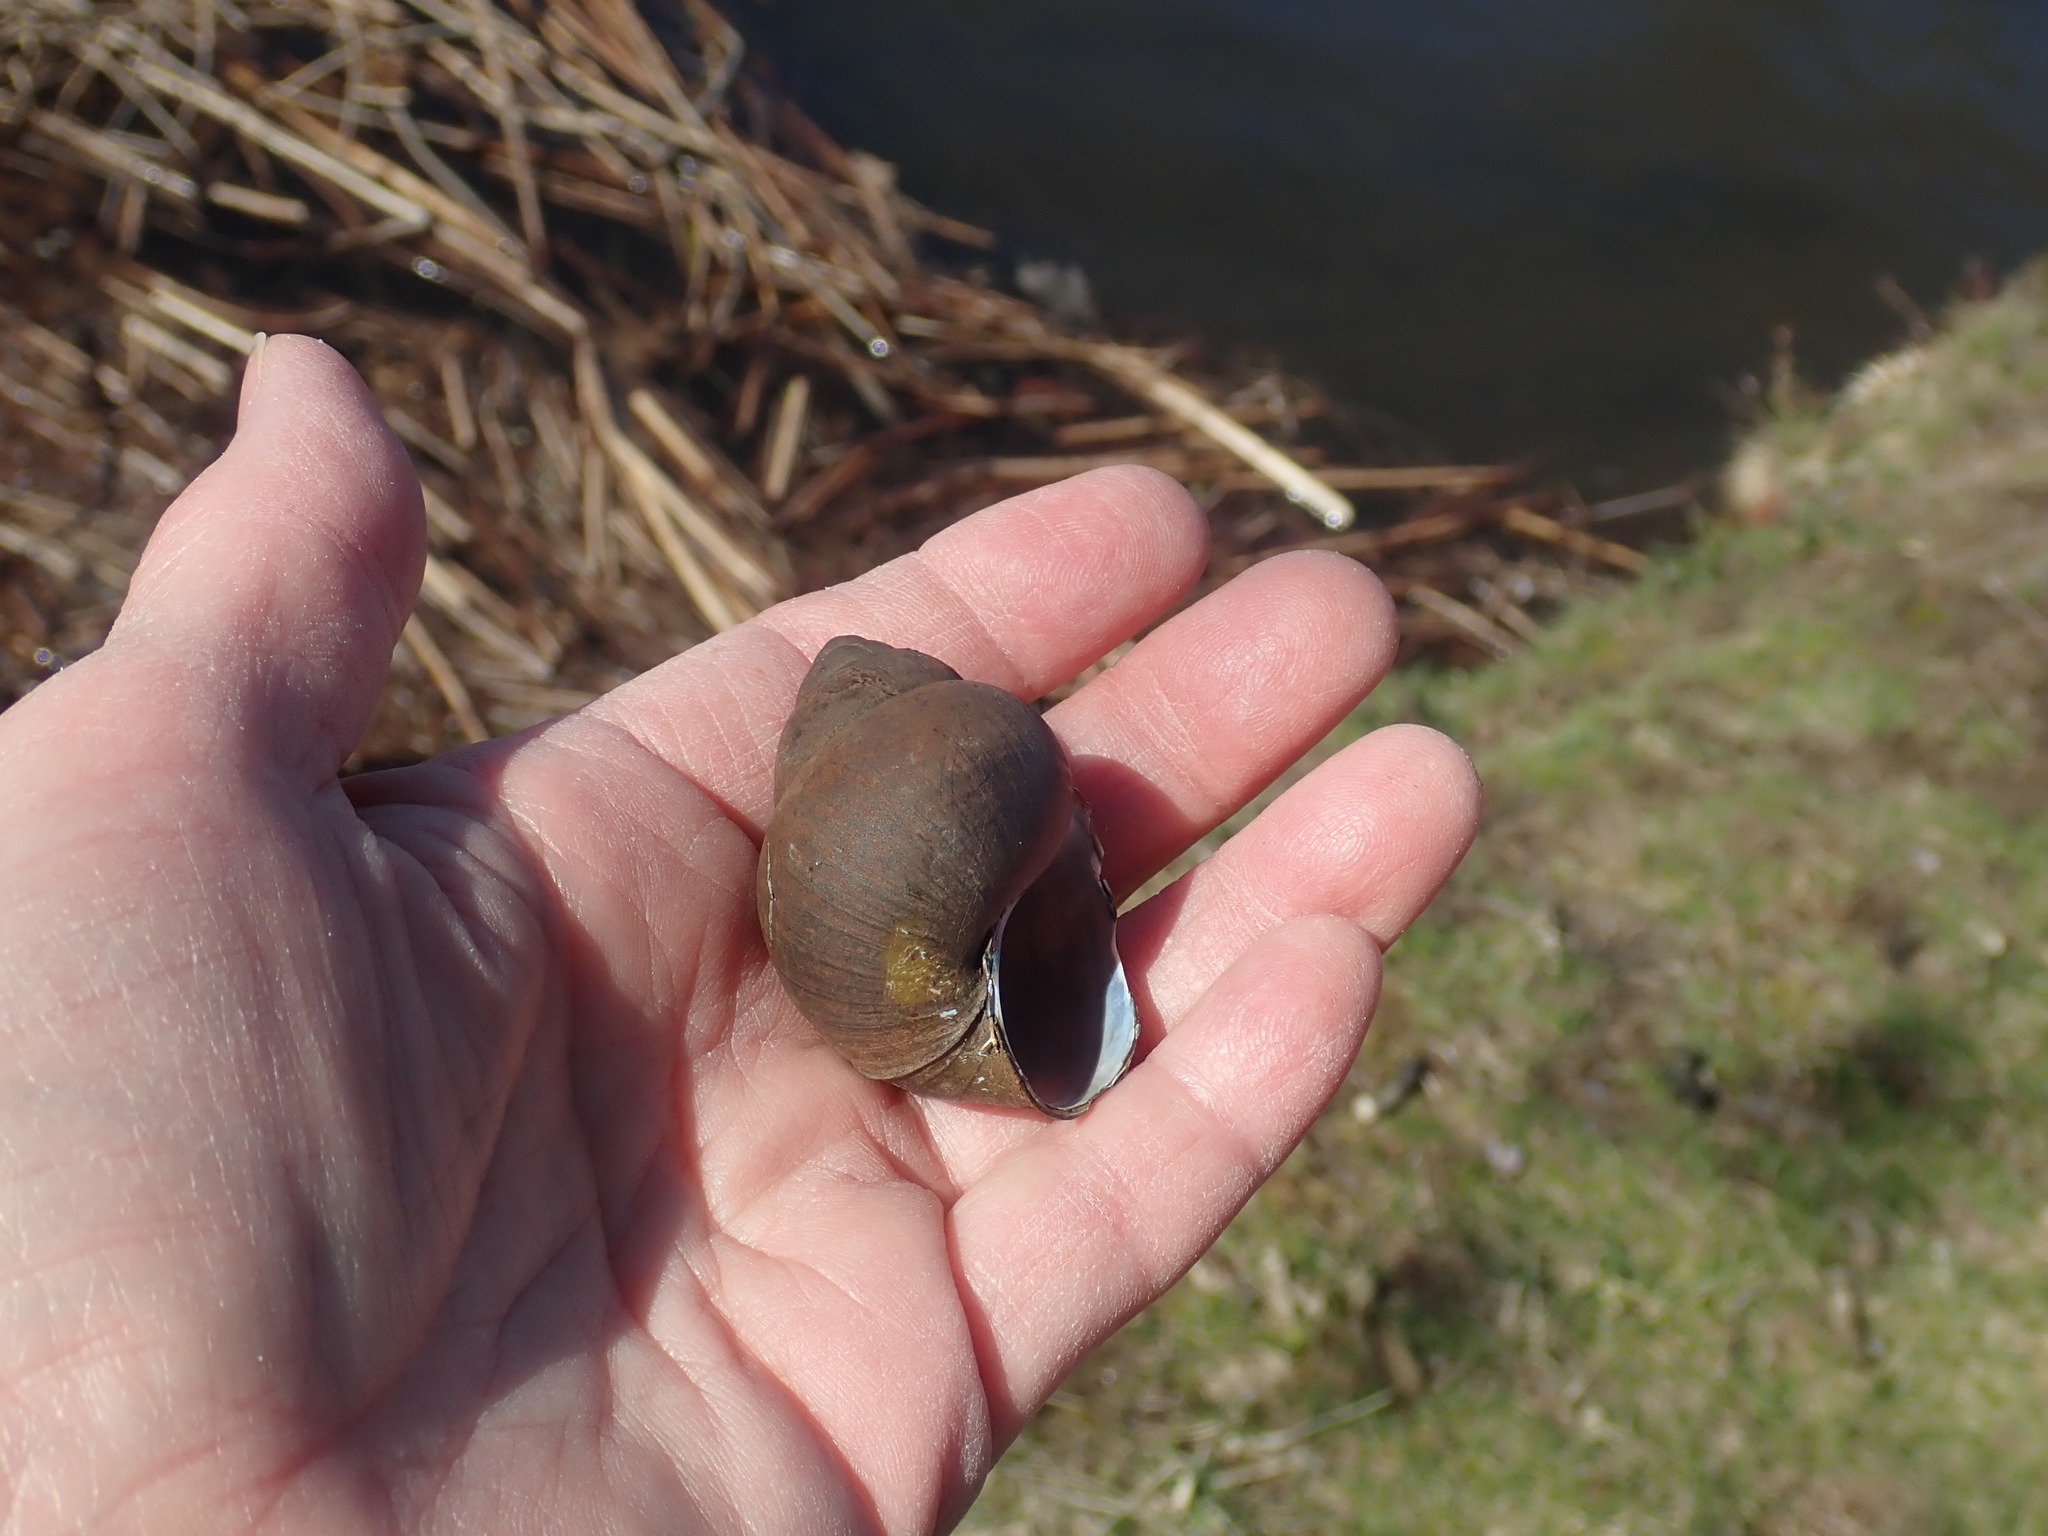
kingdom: Animalia
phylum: Mollusca
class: Gastropoda
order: Architaenioglossa
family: Viviparidae
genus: Cipangopaludina
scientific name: Cipangopaludina chinensis
